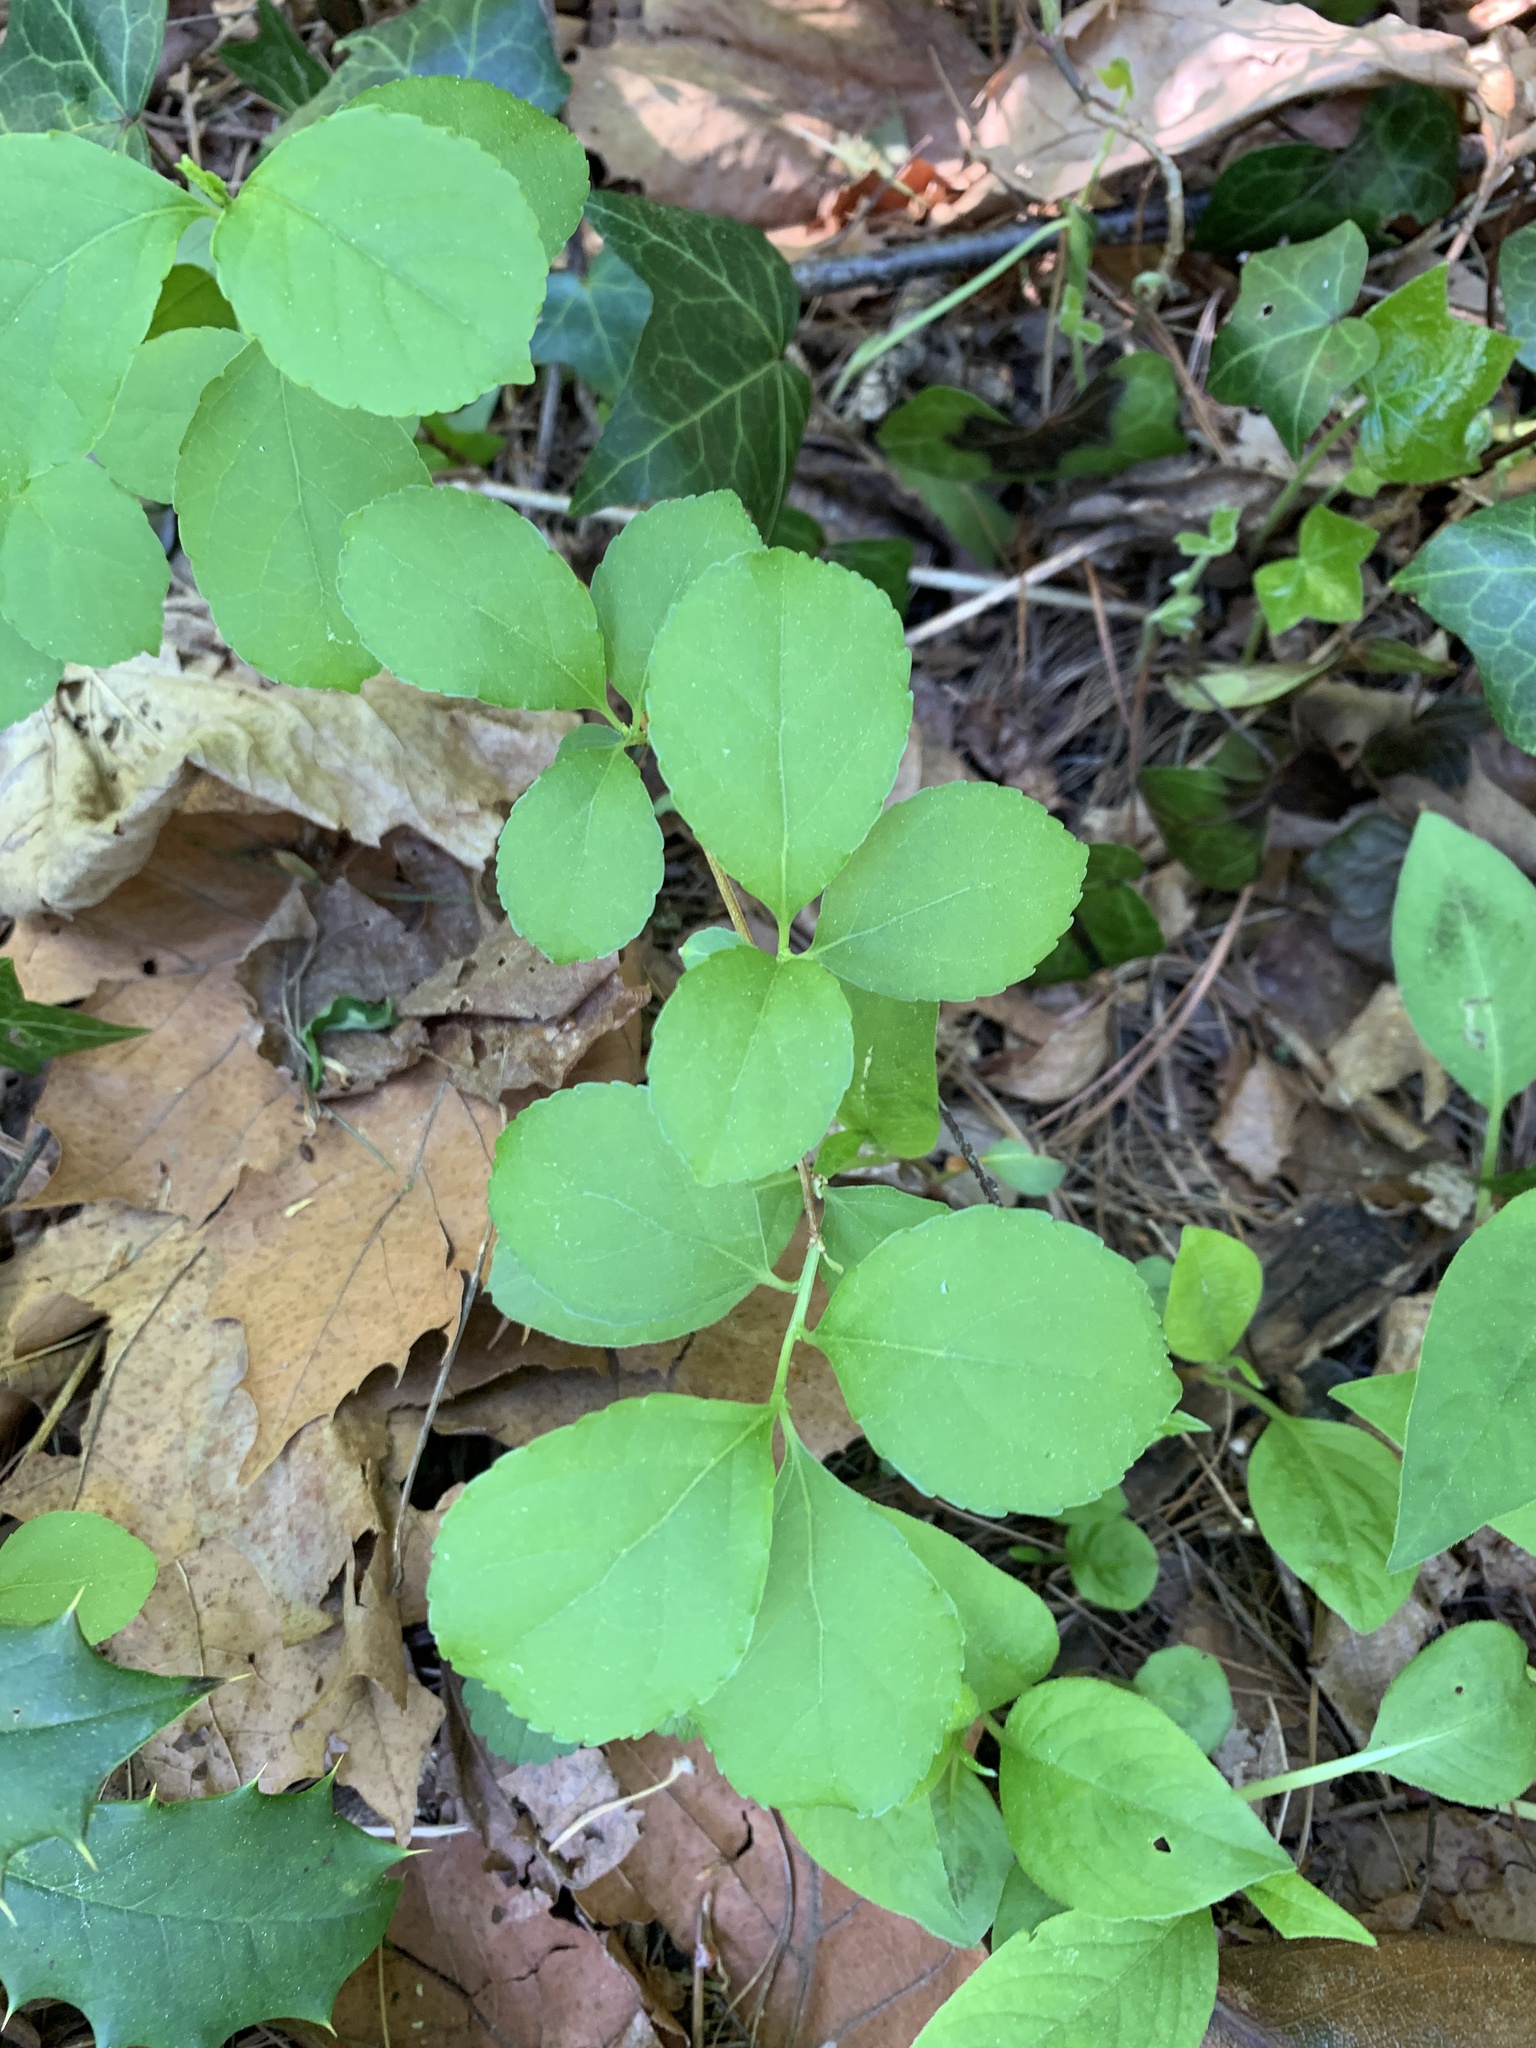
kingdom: Plantae
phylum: Tracheophyta
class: Magnoliopsida
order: Celastrales
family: Celastraceae
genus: Celastrus
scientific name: Celastrus orbiculatus
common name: Oriental bittersweet
